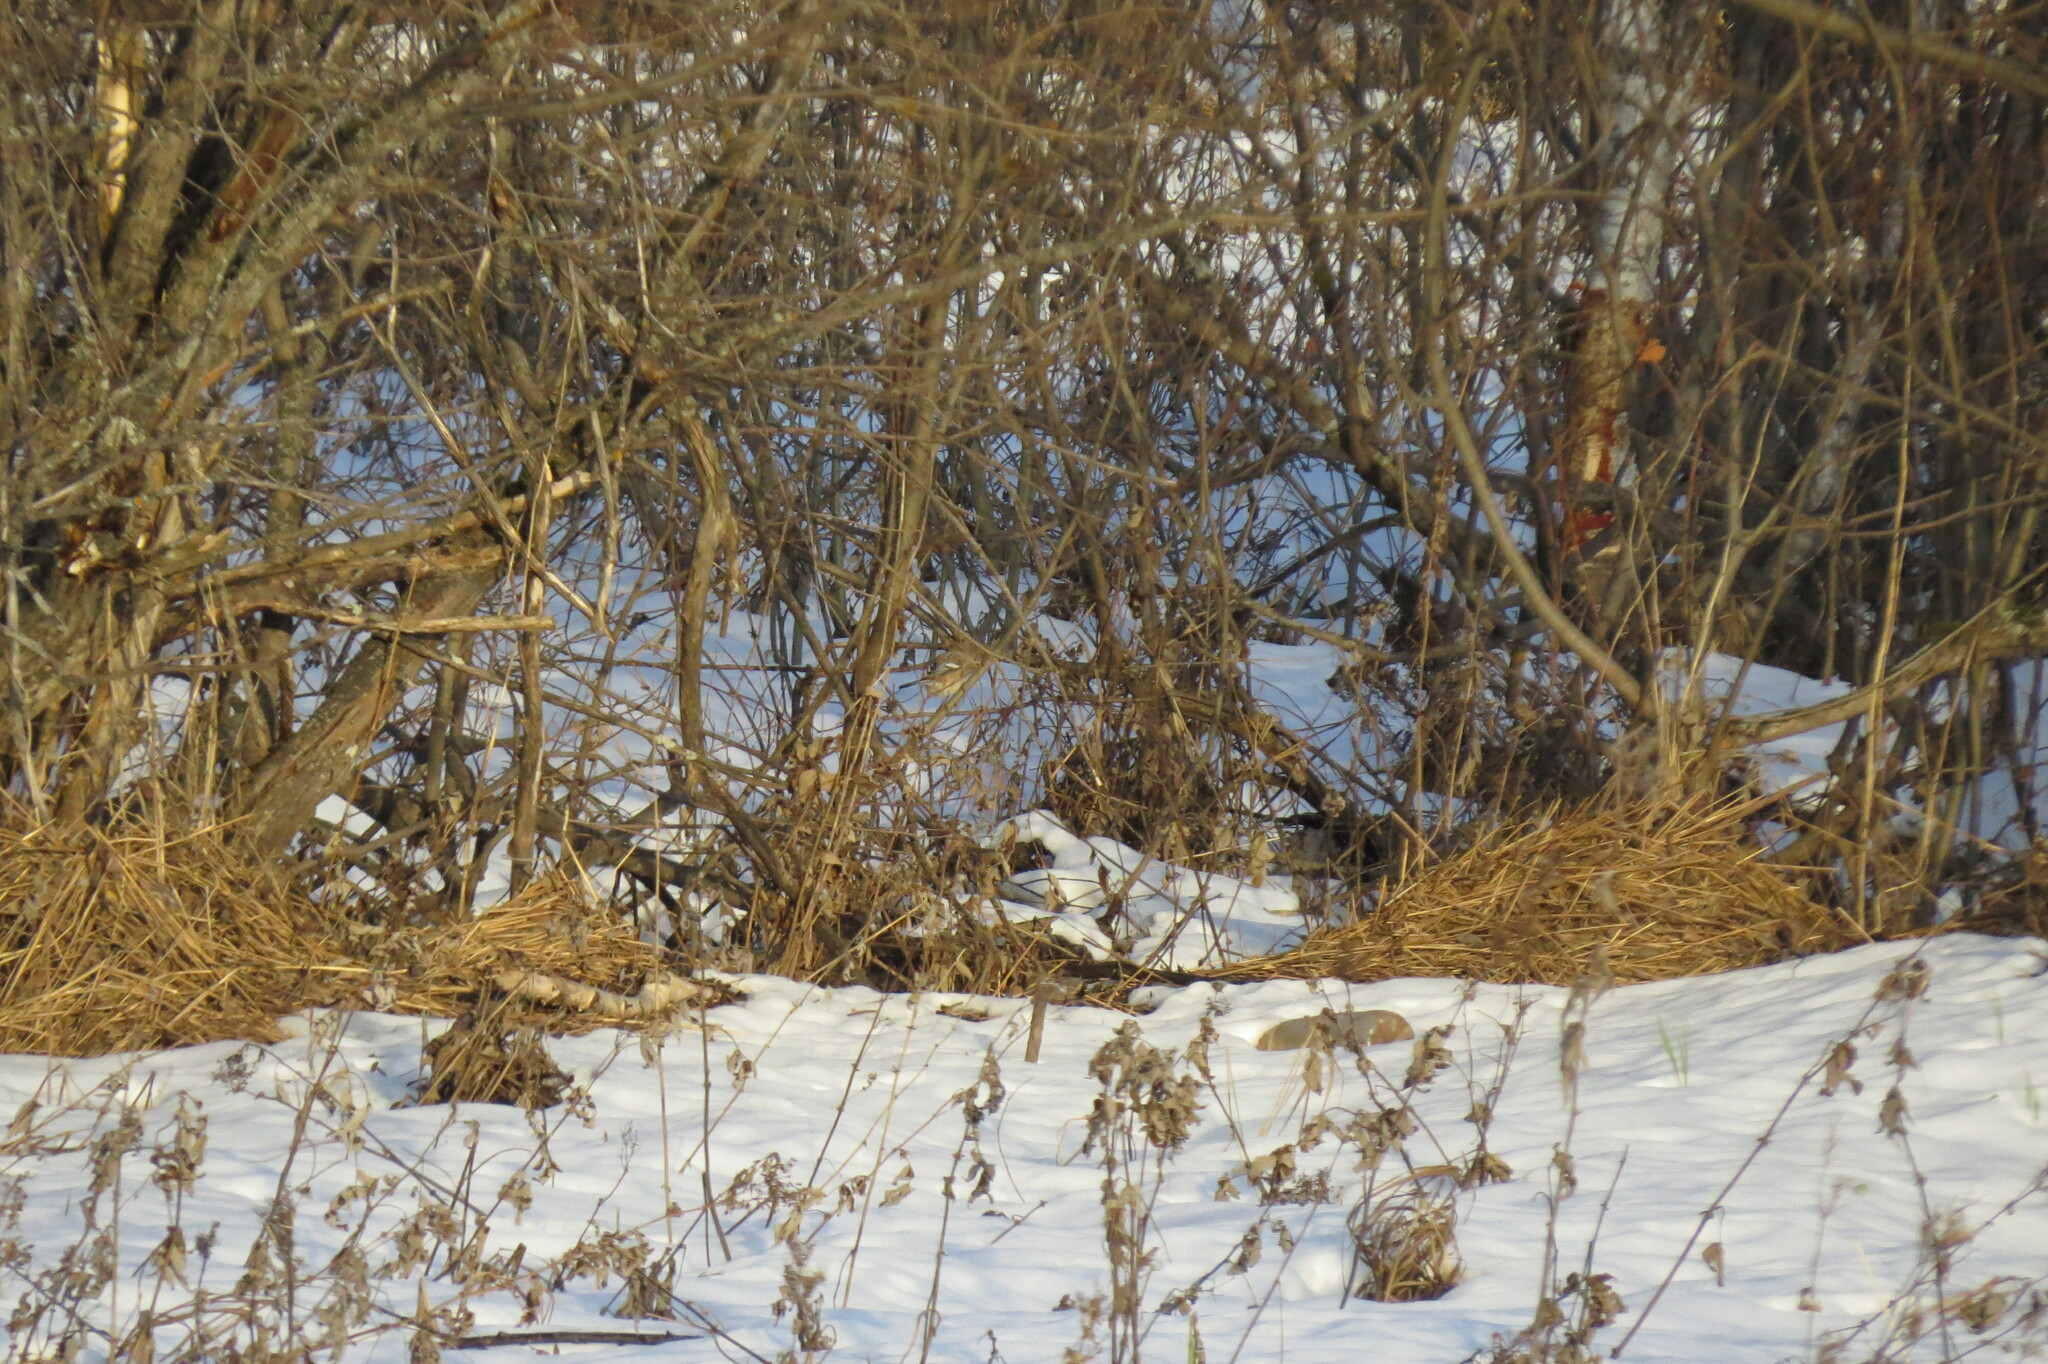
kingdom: Animalia
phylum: Chordata
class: Aves
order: Passeriformes
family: Fringillidae
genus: Carpodacus
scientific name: Carpodacus sibiricus
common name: Long-tailed rosefinch
